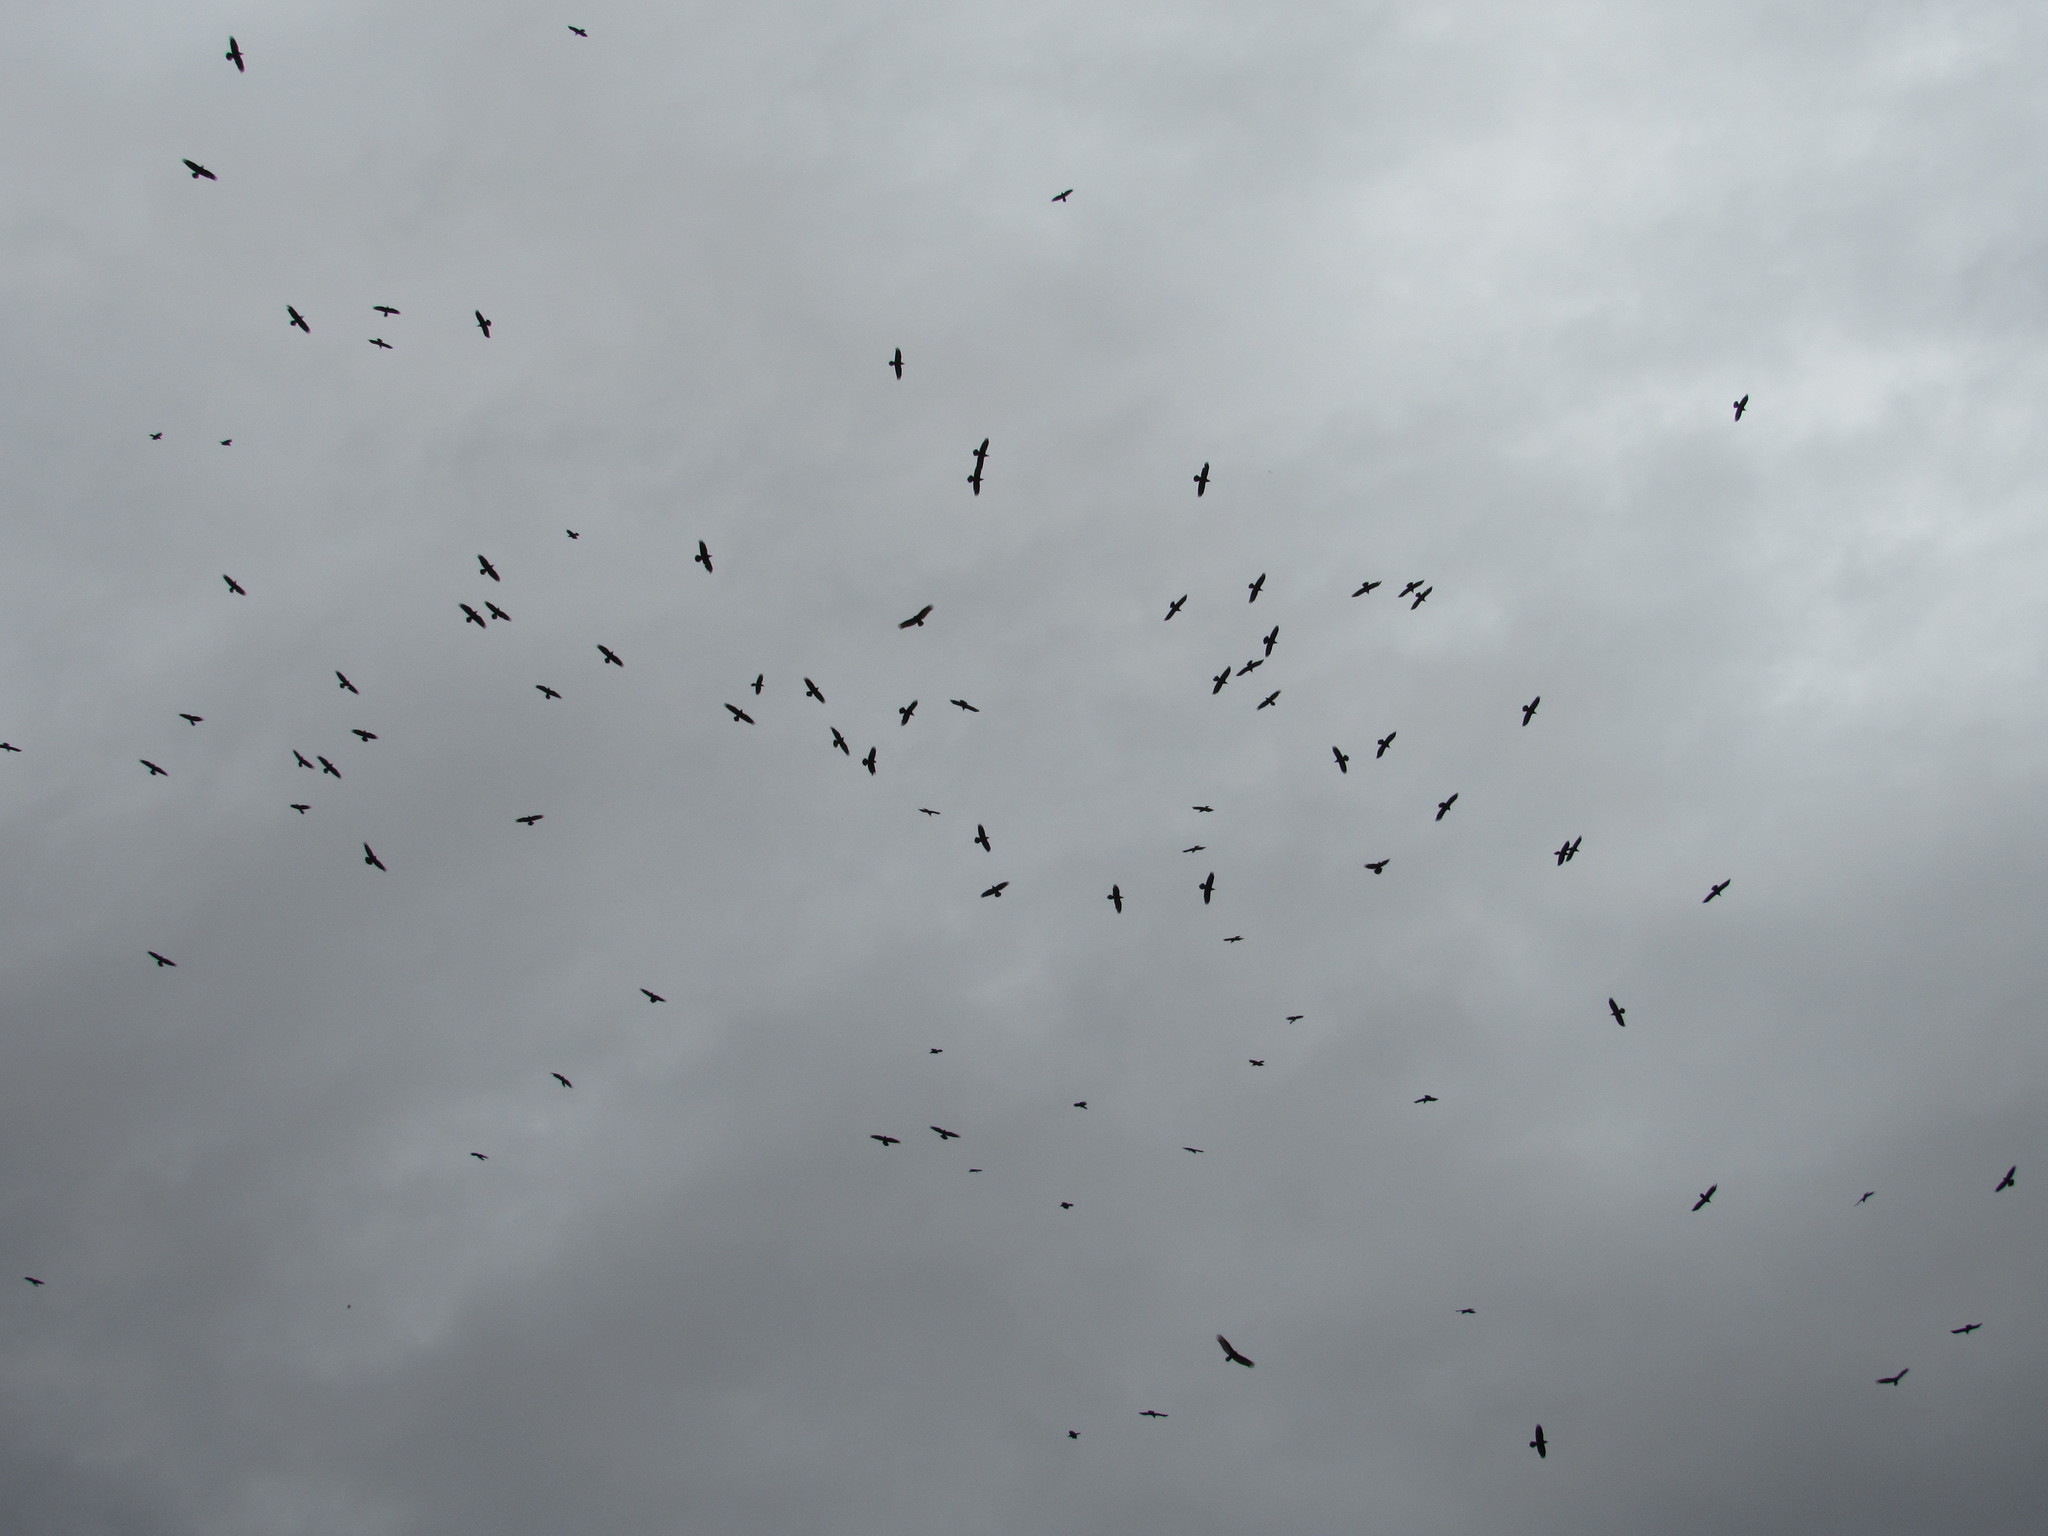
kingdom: Animalia
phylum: Chordata
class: Aves
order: Passeriformes
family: Corvidae
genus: Corvus
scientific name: Corvus corax
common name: Common raven
